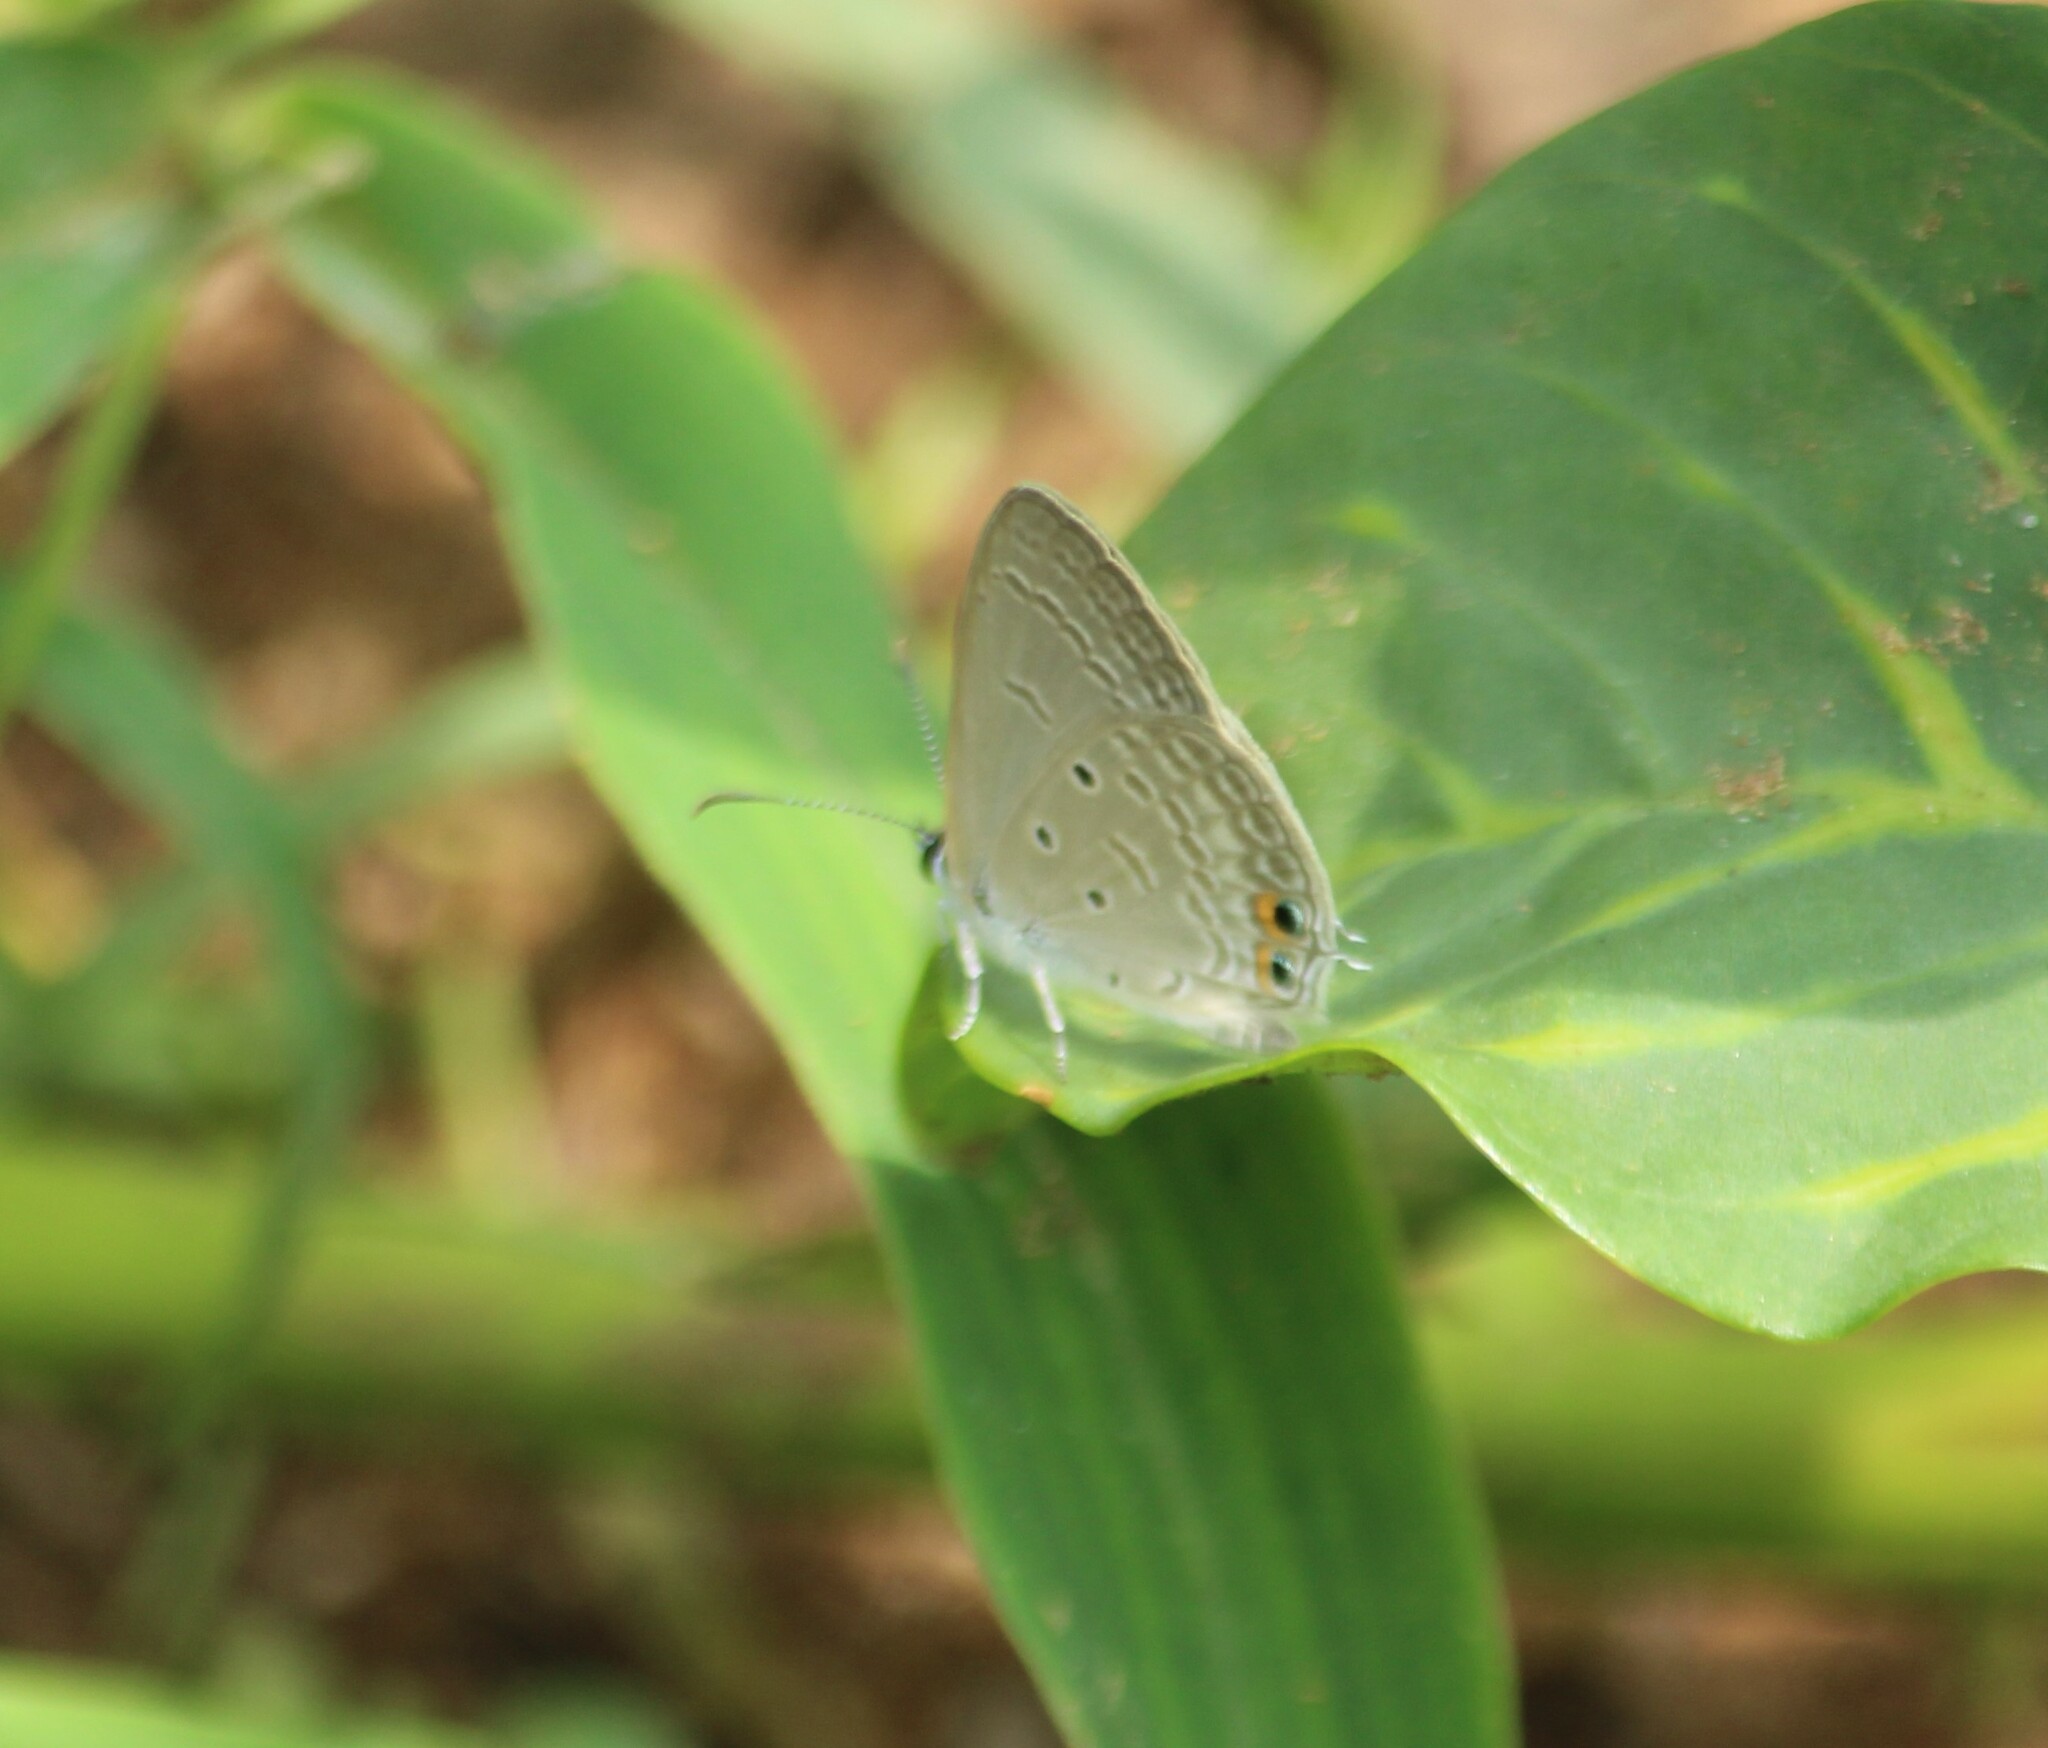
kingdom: Animalia
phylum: Arthropoda
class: Insecta
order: Lepidoptera
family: Lycaenidae
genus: Euchrysops
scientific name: Euchrysops cnejus
